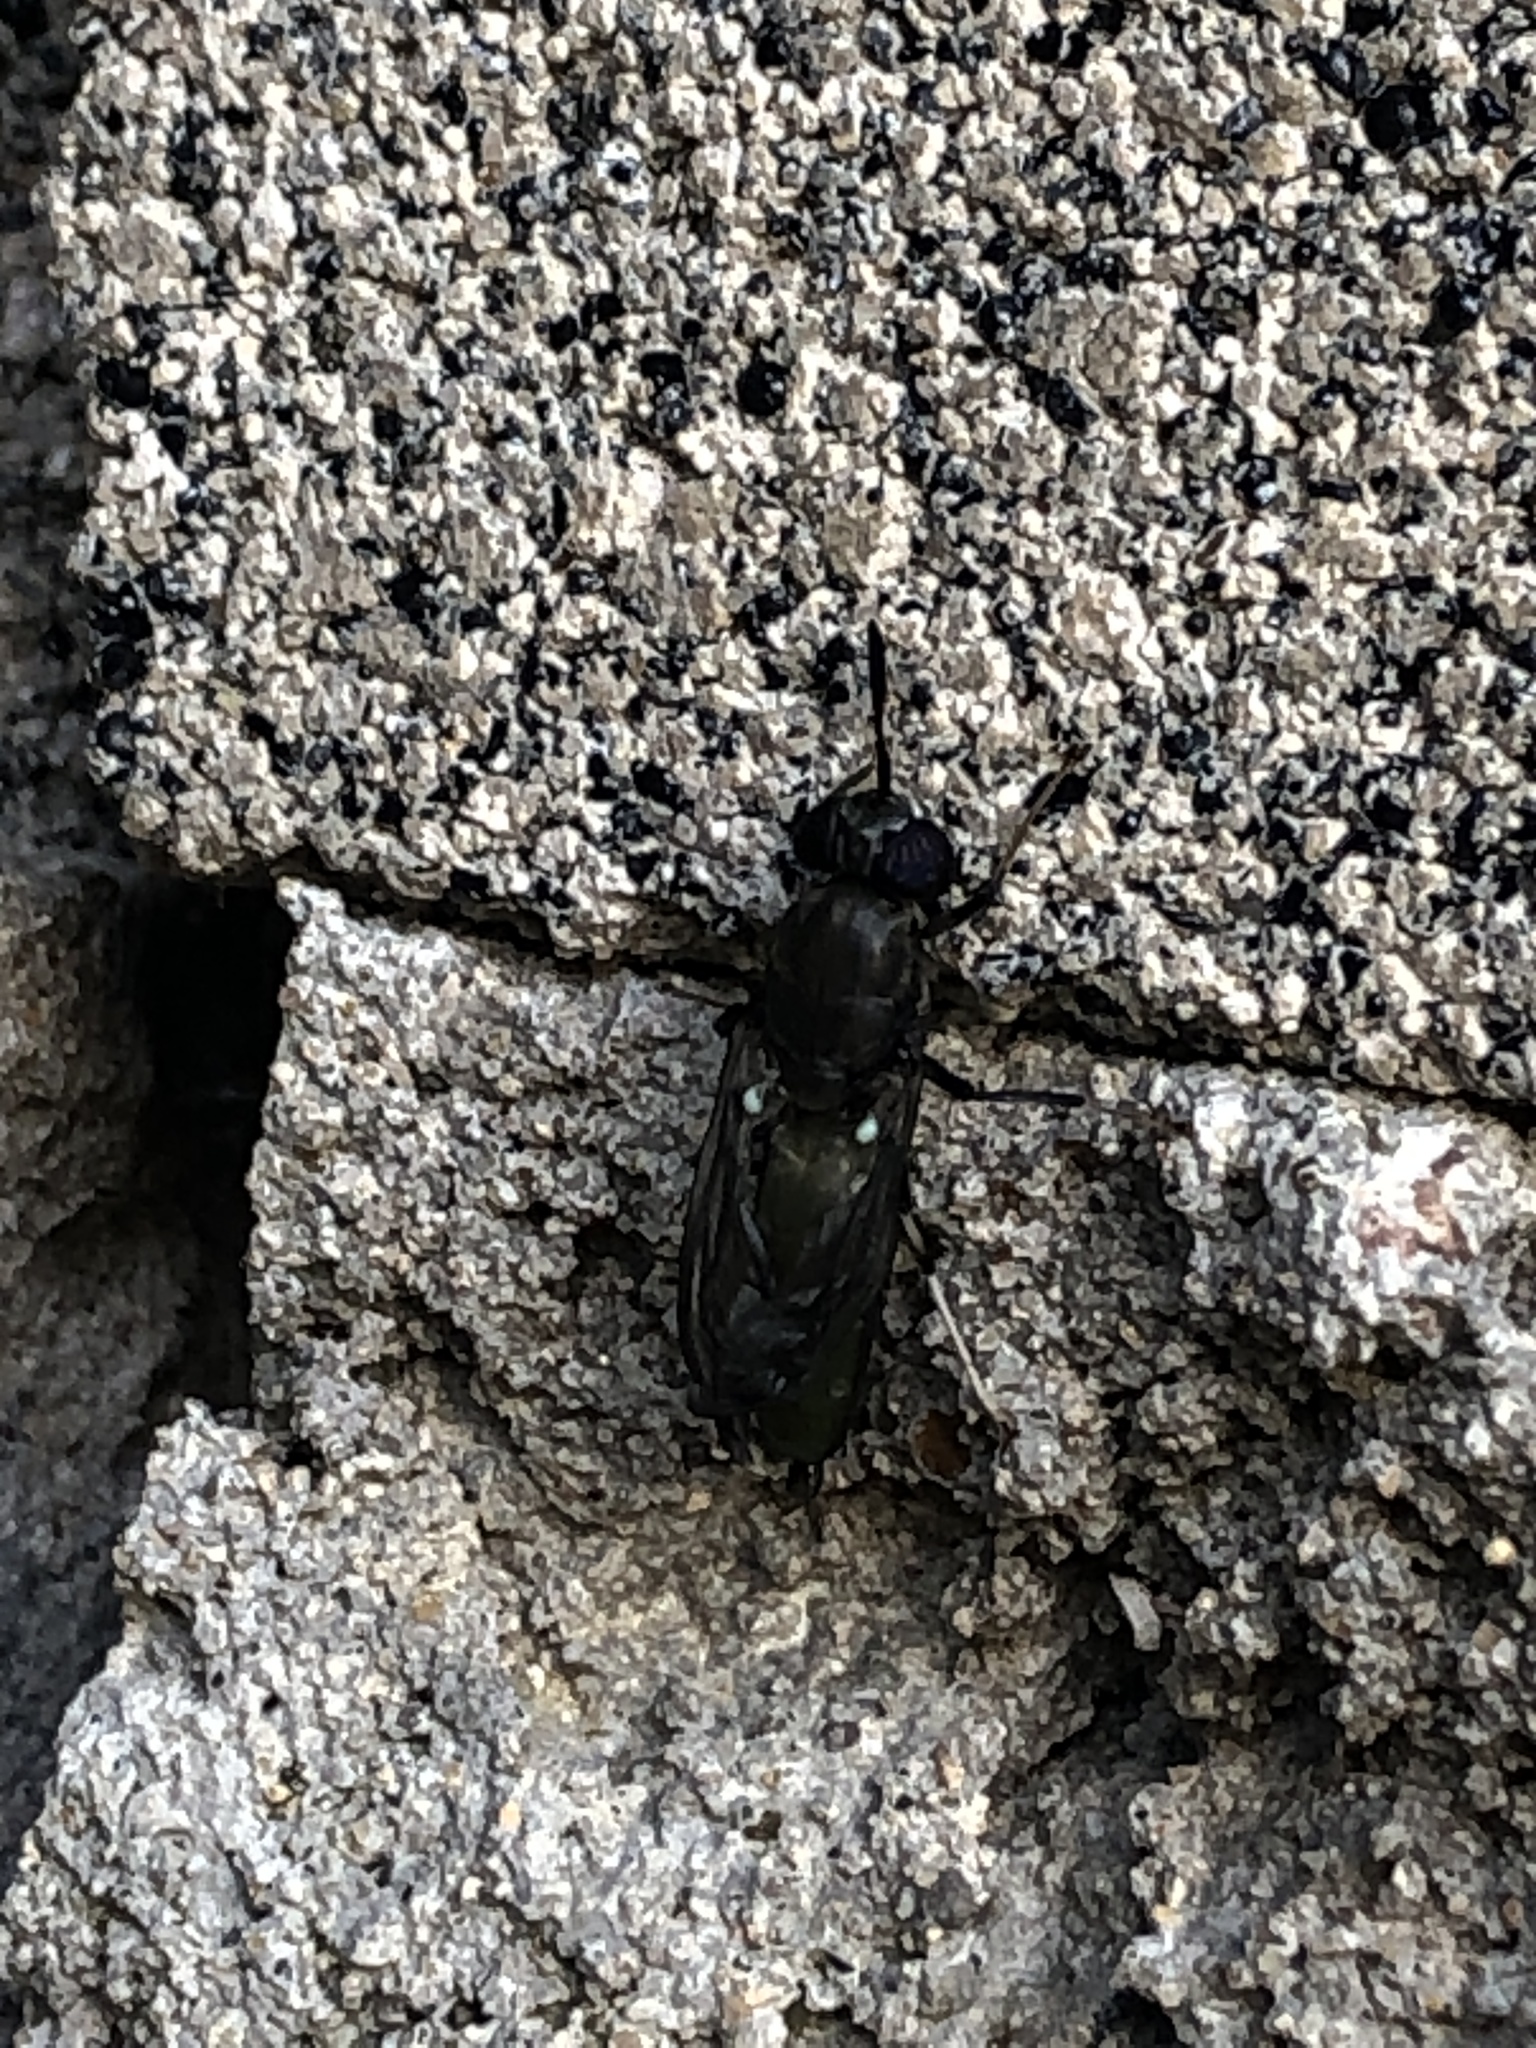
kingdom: Animalia
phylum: Arthropoda
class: Insecta
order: Diptera
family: Stratiomyidae
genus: Hermetia
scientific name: Hermetia illucens
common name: Black soldier fly
